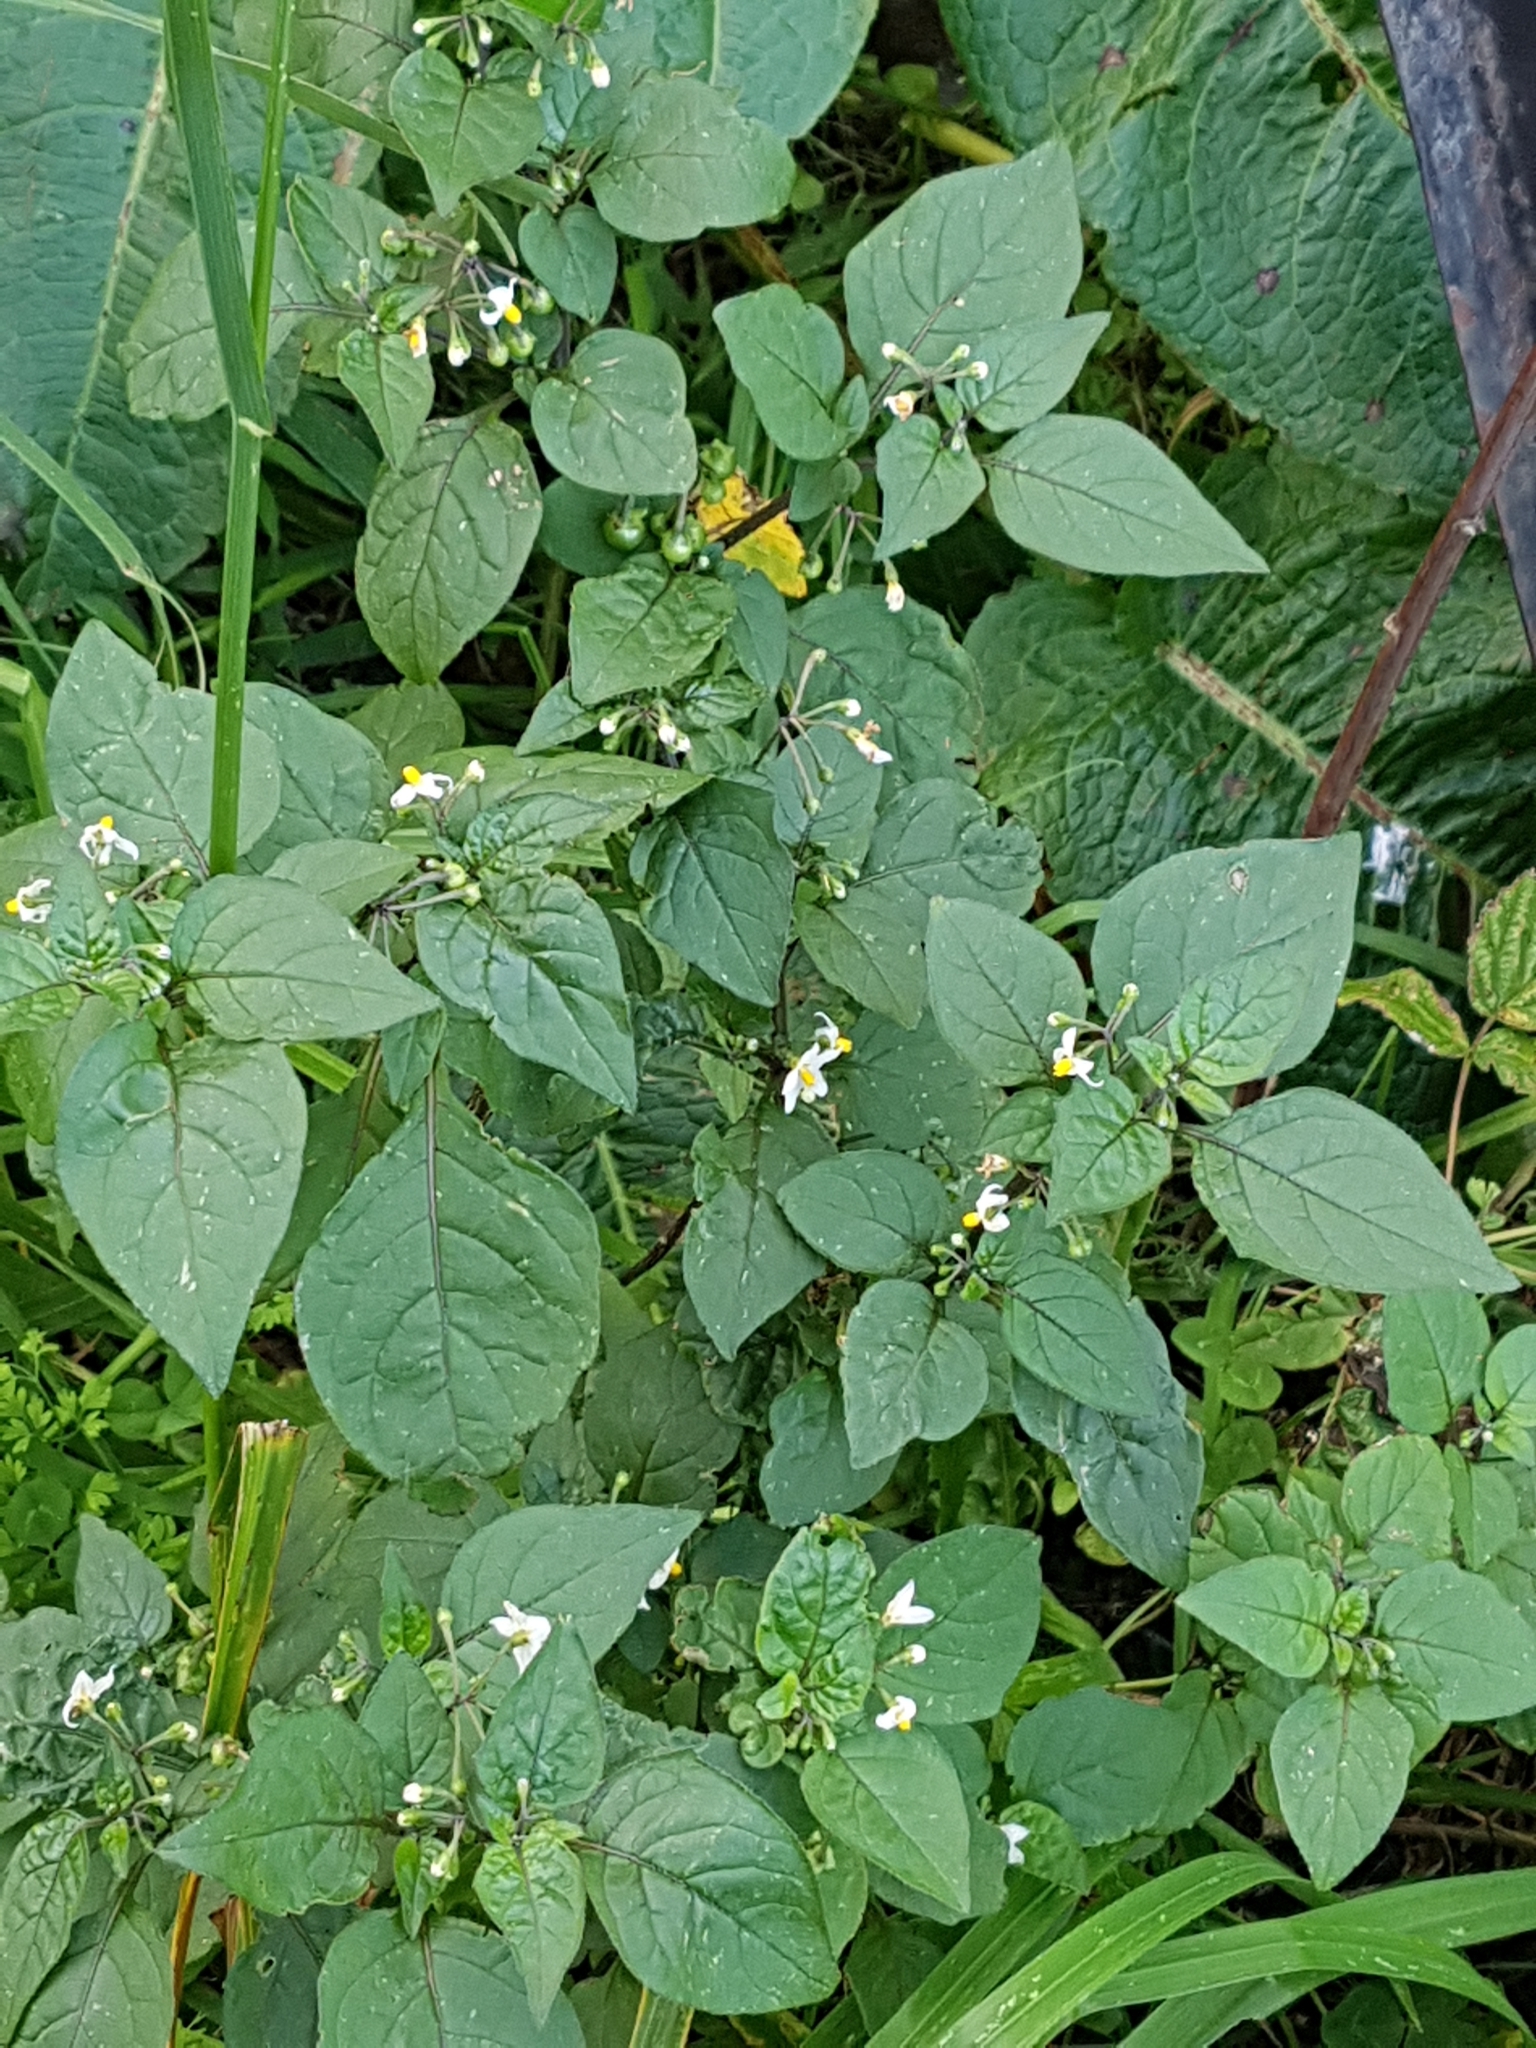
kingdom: Plantae
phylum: Tracheophyta
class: Magnoliopsida
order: Solanales
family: Solanaceae
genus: Solanum
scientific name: Solanum nigrum
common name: Black nightshade
